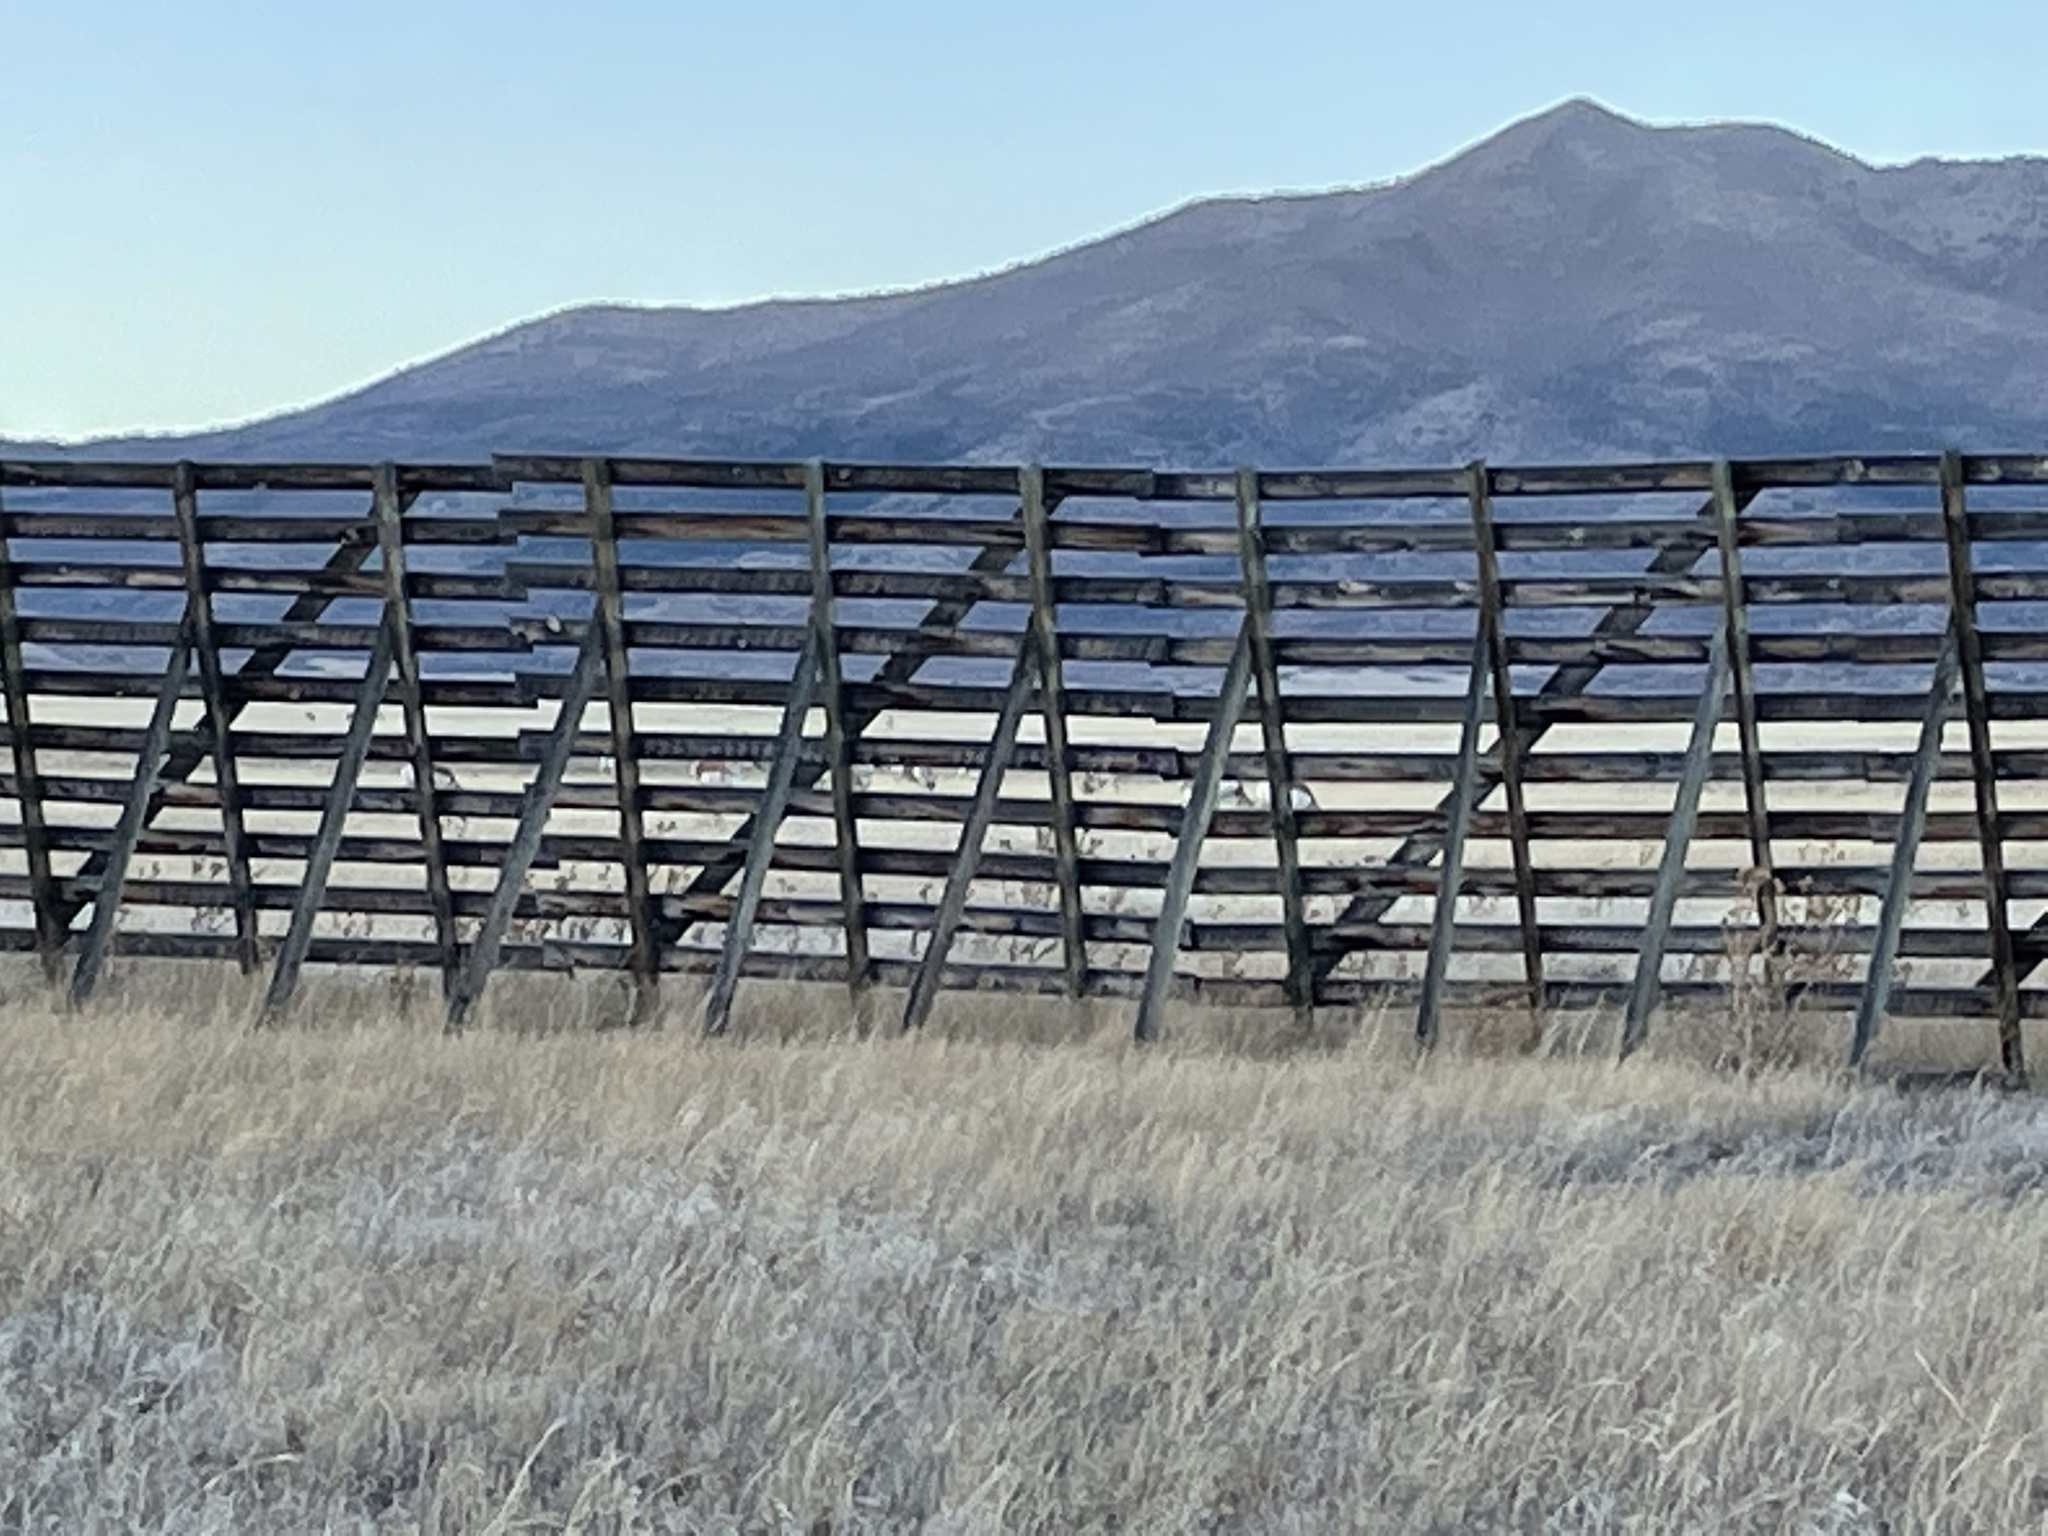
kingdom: Animalia
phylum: Chordata
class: Mammalia
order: Artiodactyla
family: Antilocapridae
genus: Antilocapra
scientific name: Antilocapra americana
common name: Pronghorn
